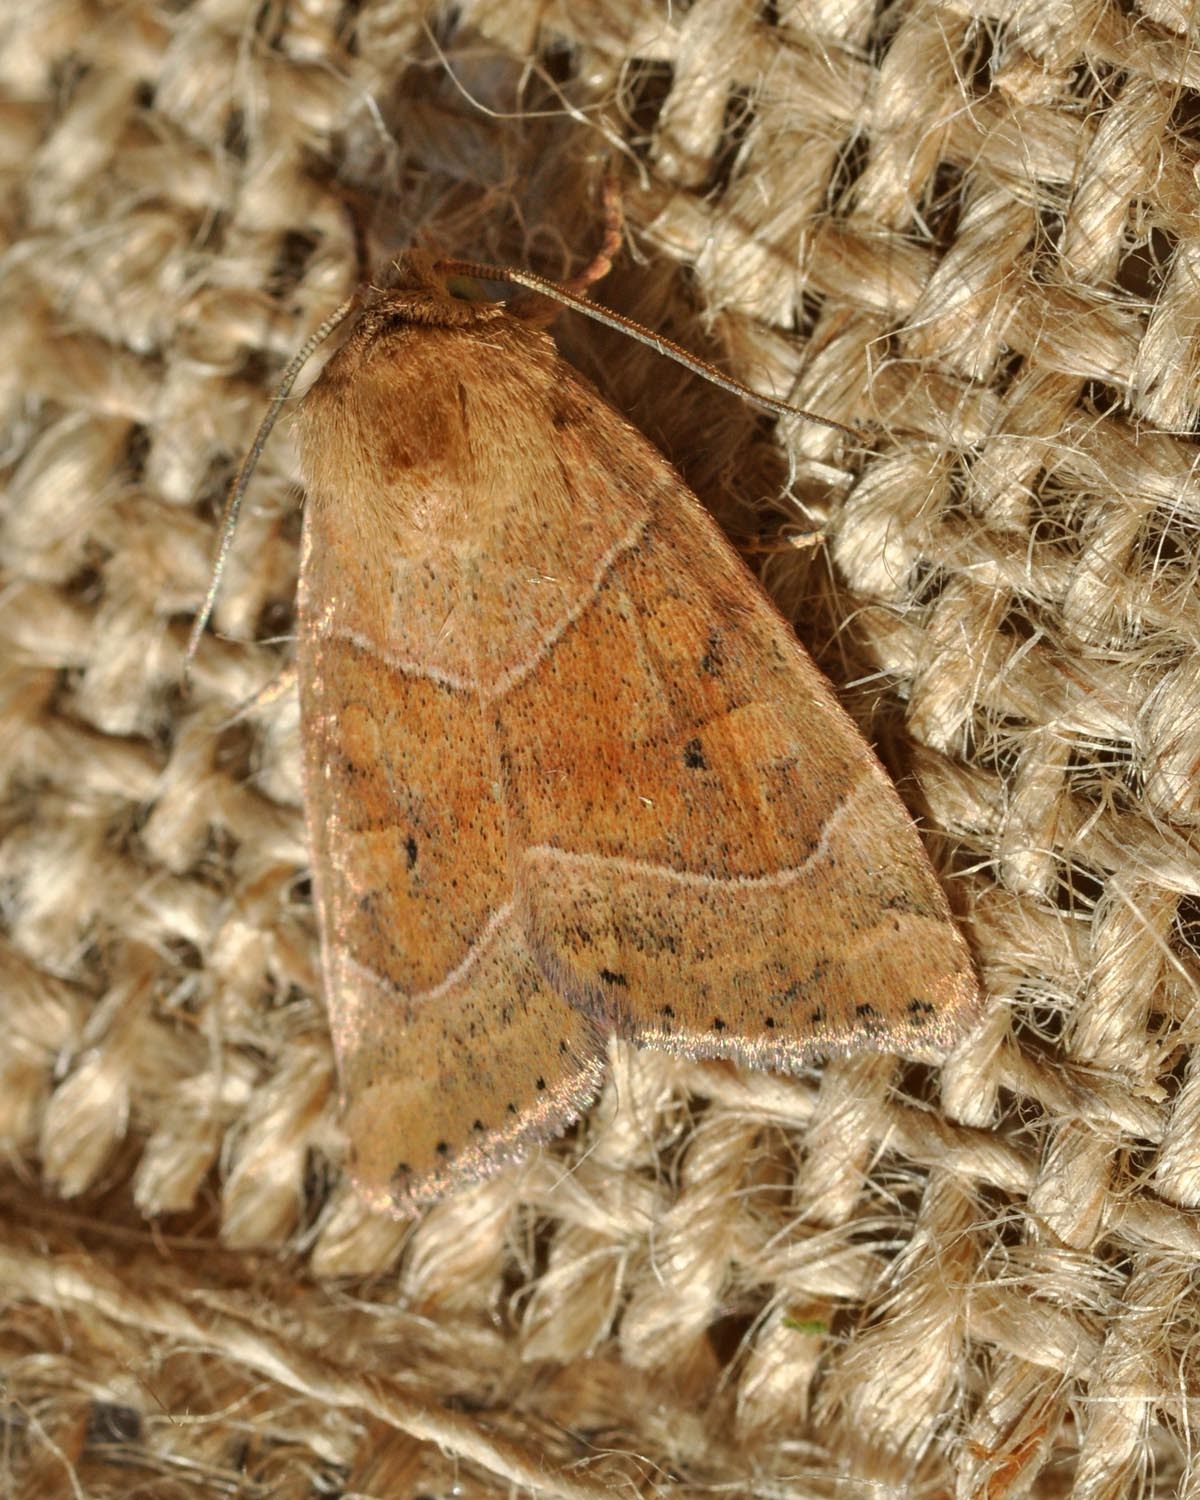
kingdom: Animalia
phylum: Arthropoda
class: Insecta
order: Lepidoptera
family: Noctuidae
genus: Cosmia
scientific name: Cosmia trapezina
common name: Dun-bar
